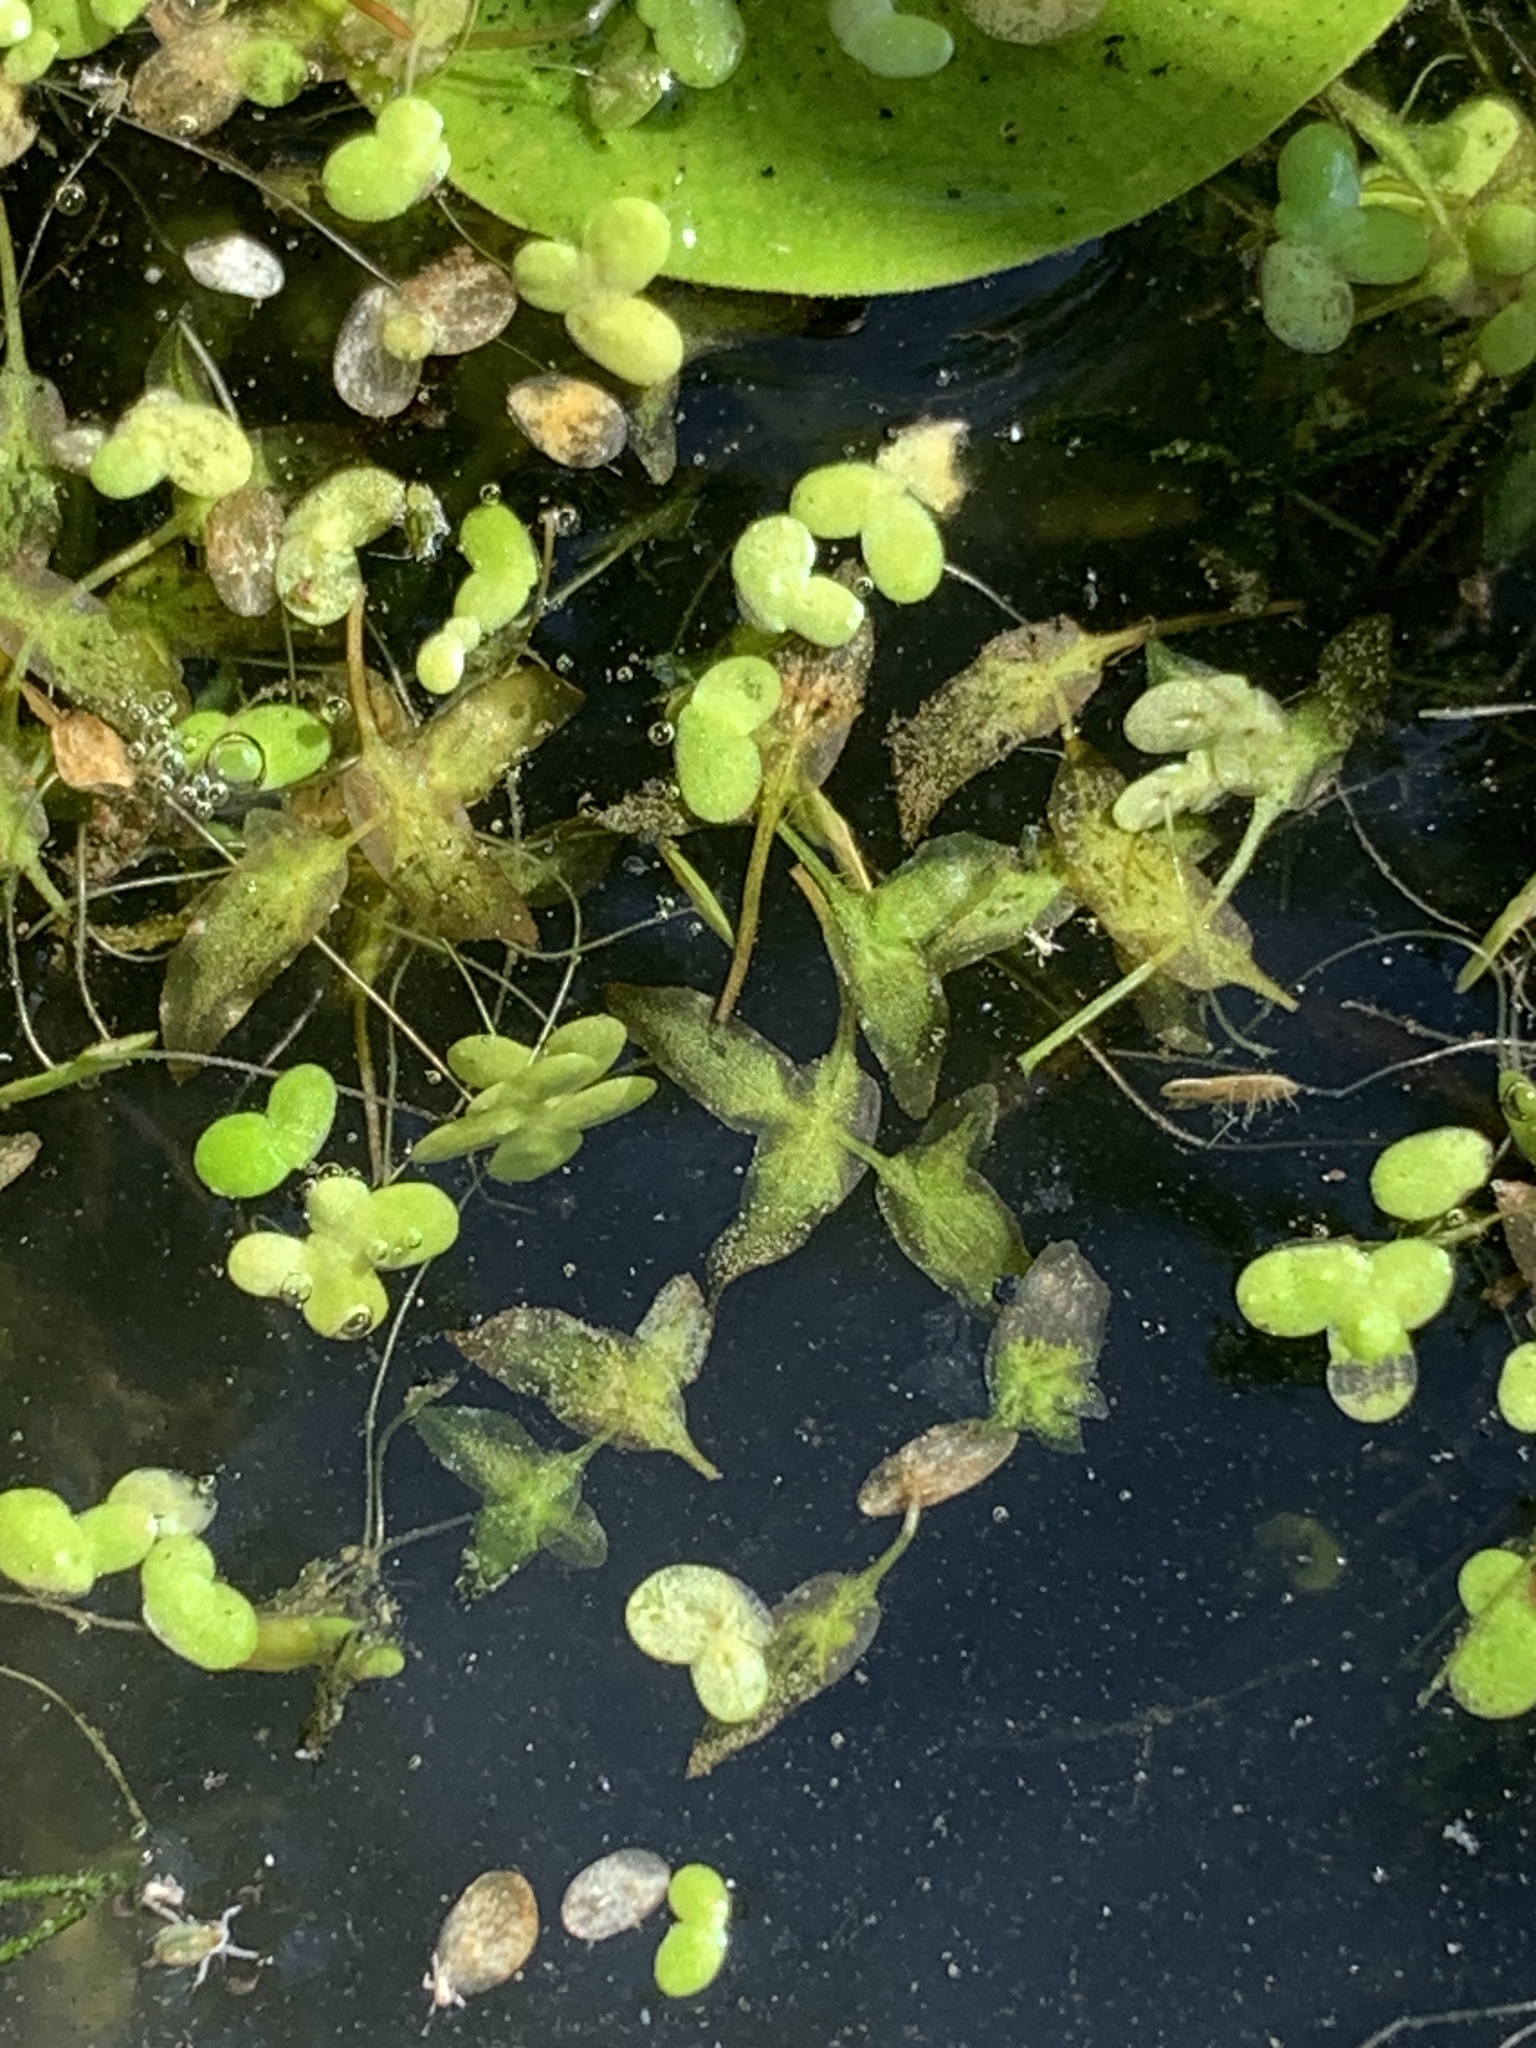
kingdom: Plantae
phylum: Tracheophyta
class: Liliopsida
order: Alismatales
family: Araceae
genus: Lemna
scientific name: Lemna trisulca
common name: Ivy-leaved duckweed
